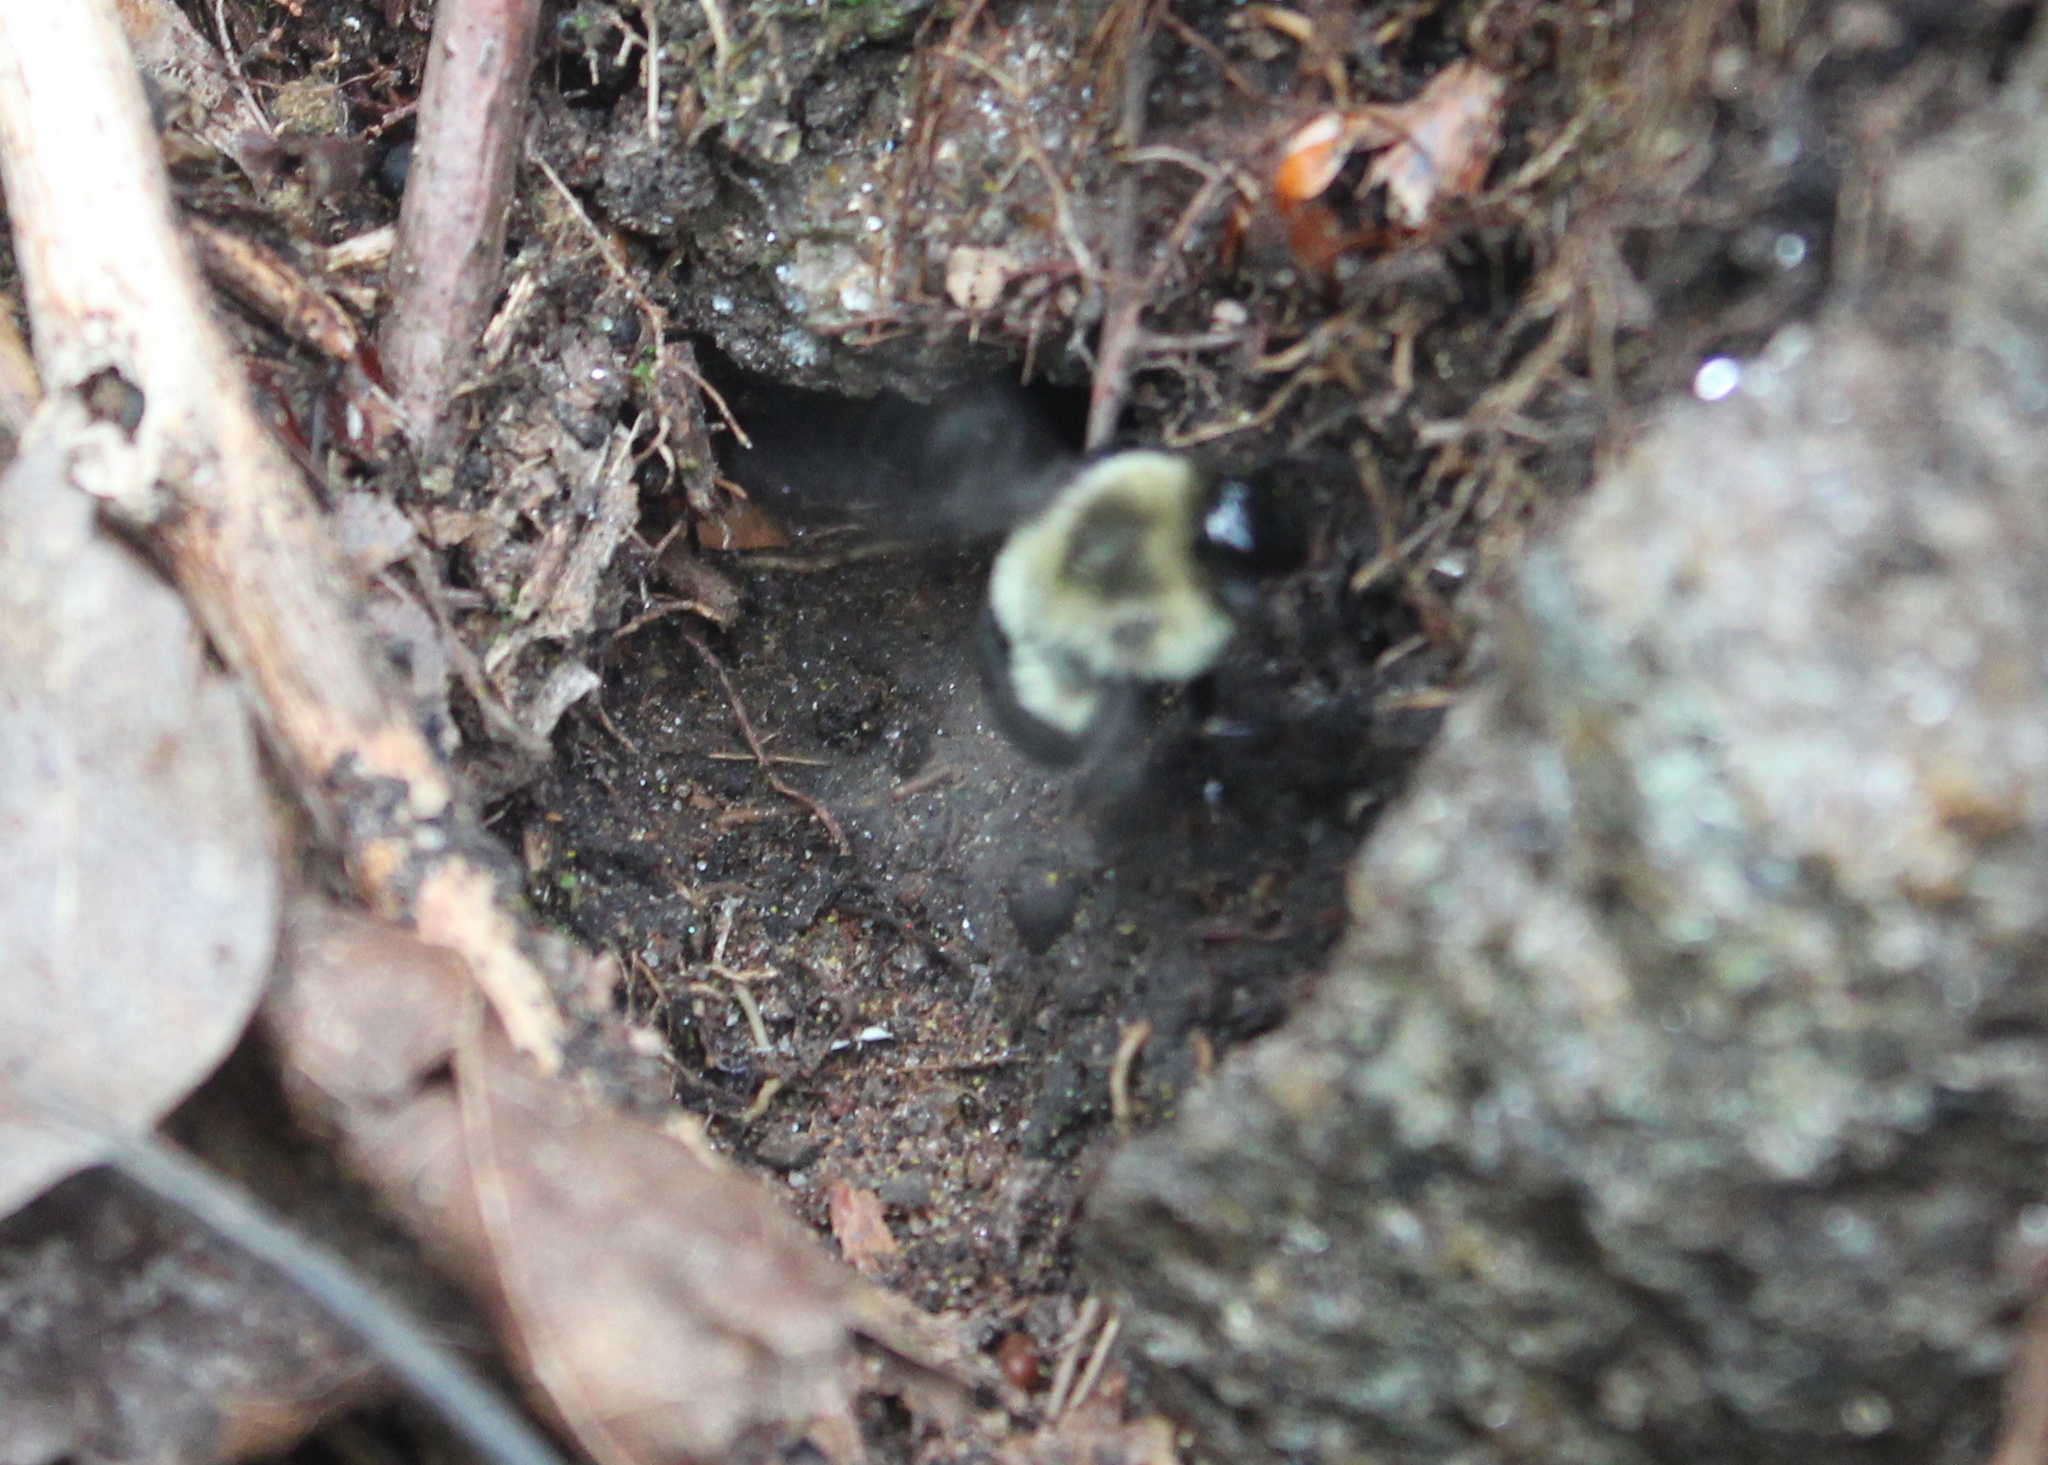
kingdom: Animalia
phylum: Arthropoda
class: Insecta
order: Hymenoptera
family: Apidae
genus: Bombus
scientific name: Bombus impatiens
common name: Common eastern bumble bee
